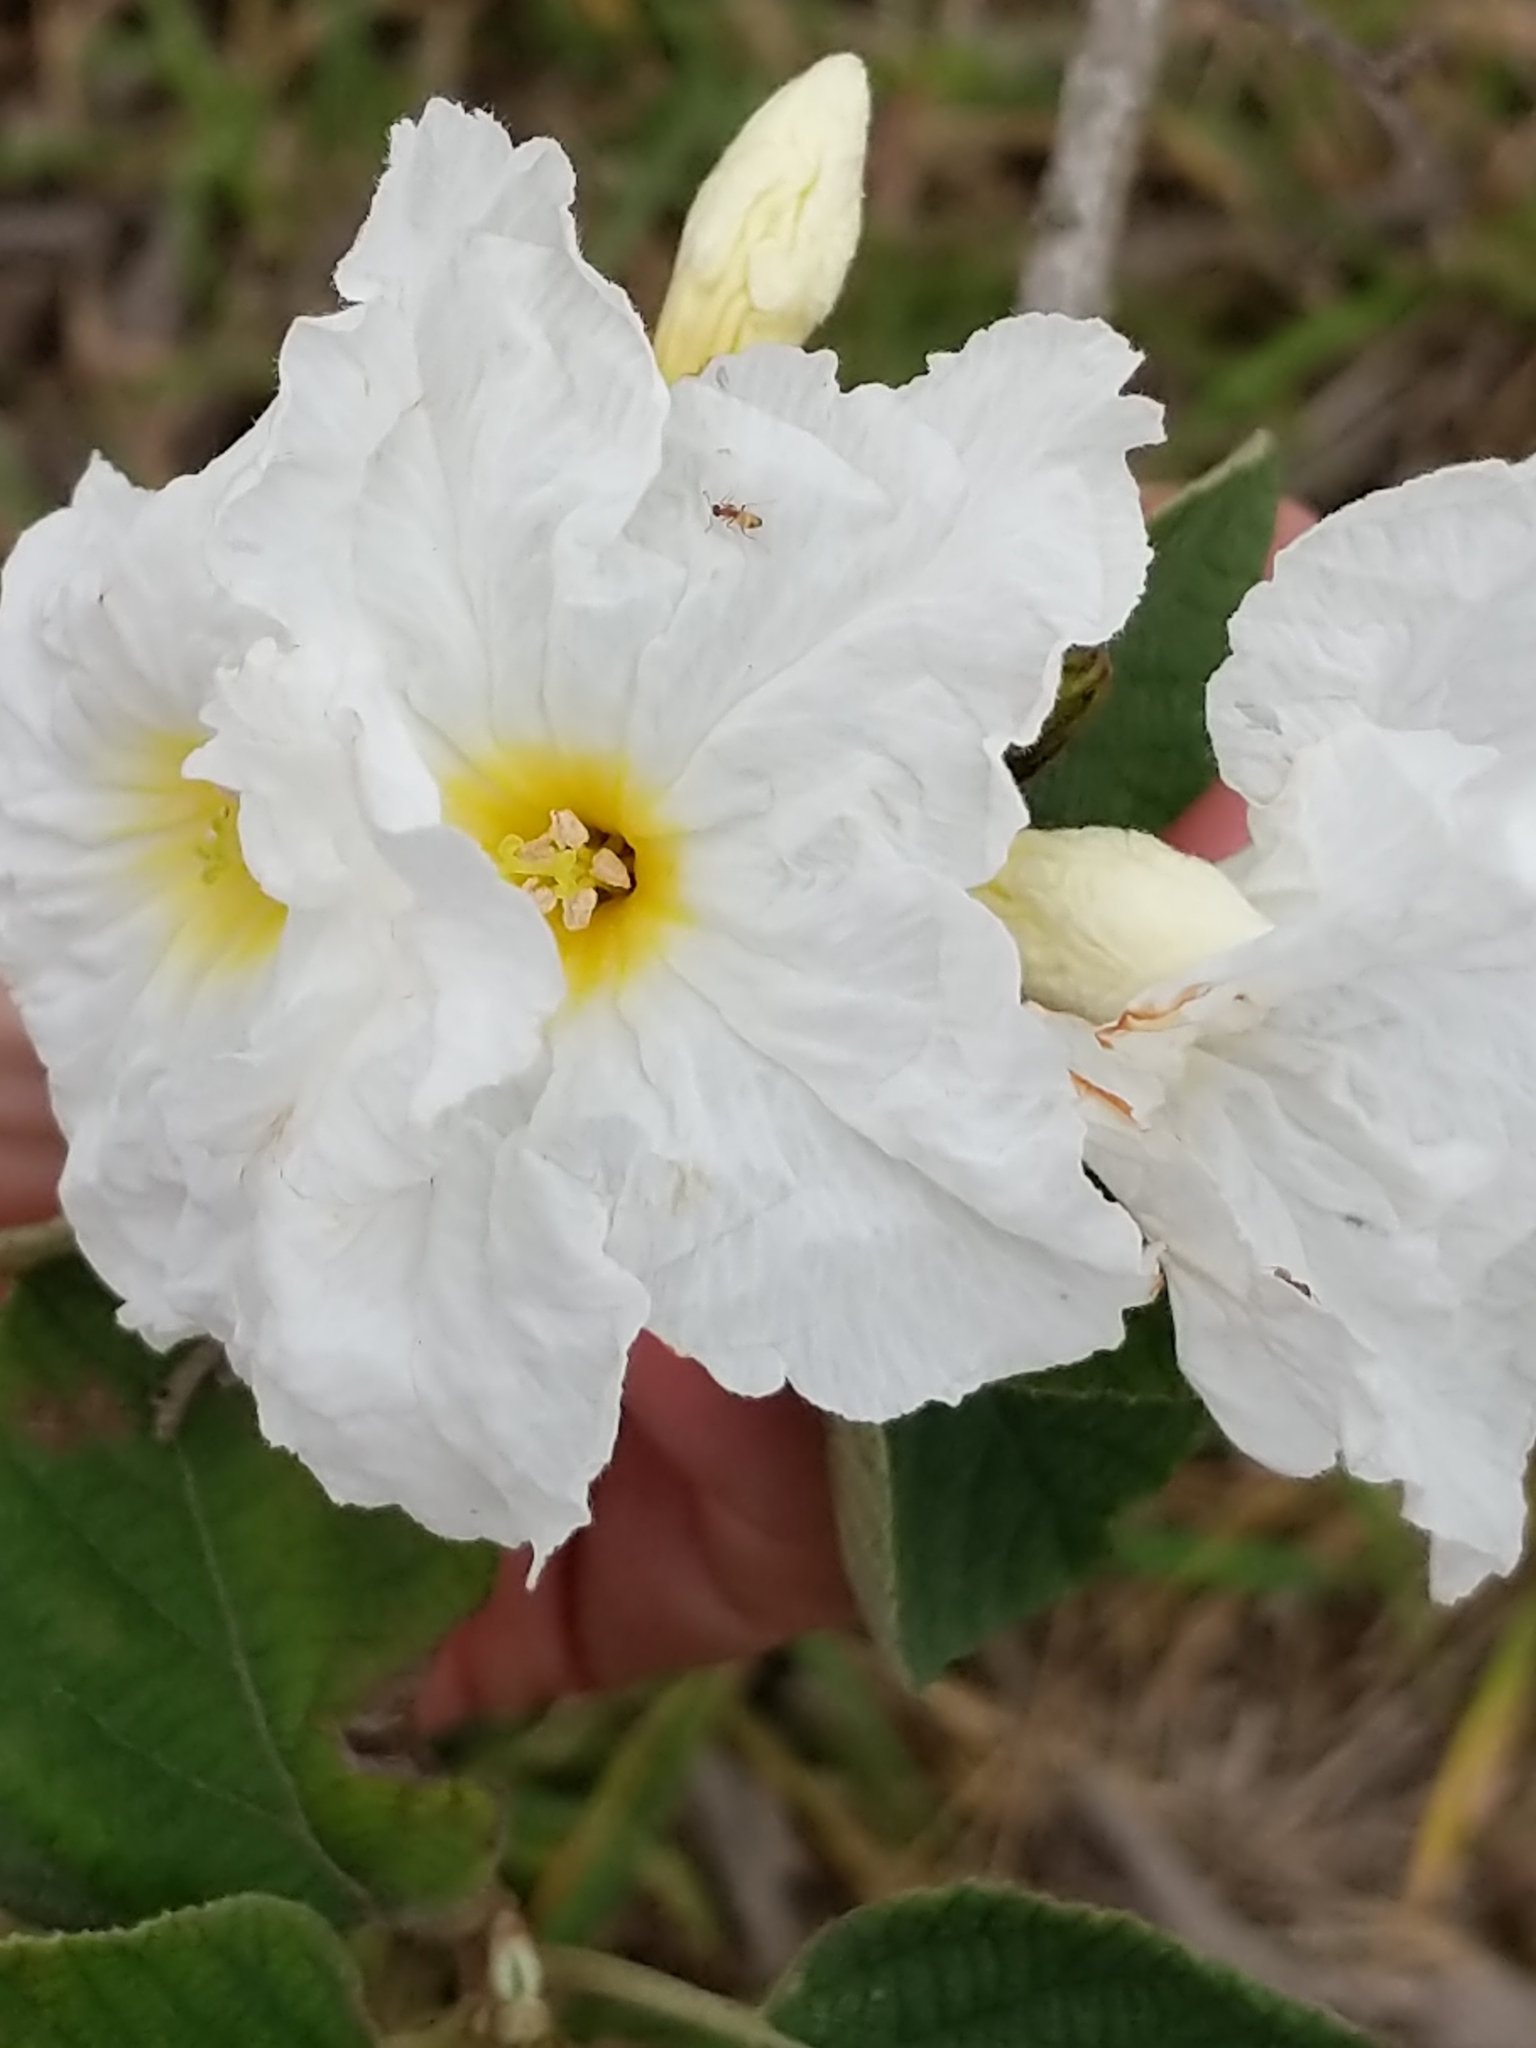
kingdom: Plantae
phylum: Tracheophyta
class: Magnoliopsida
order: Boraginales
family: Cordiaceae
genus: Cordia
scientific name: Cordia boissieri
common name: Mexican-olive
